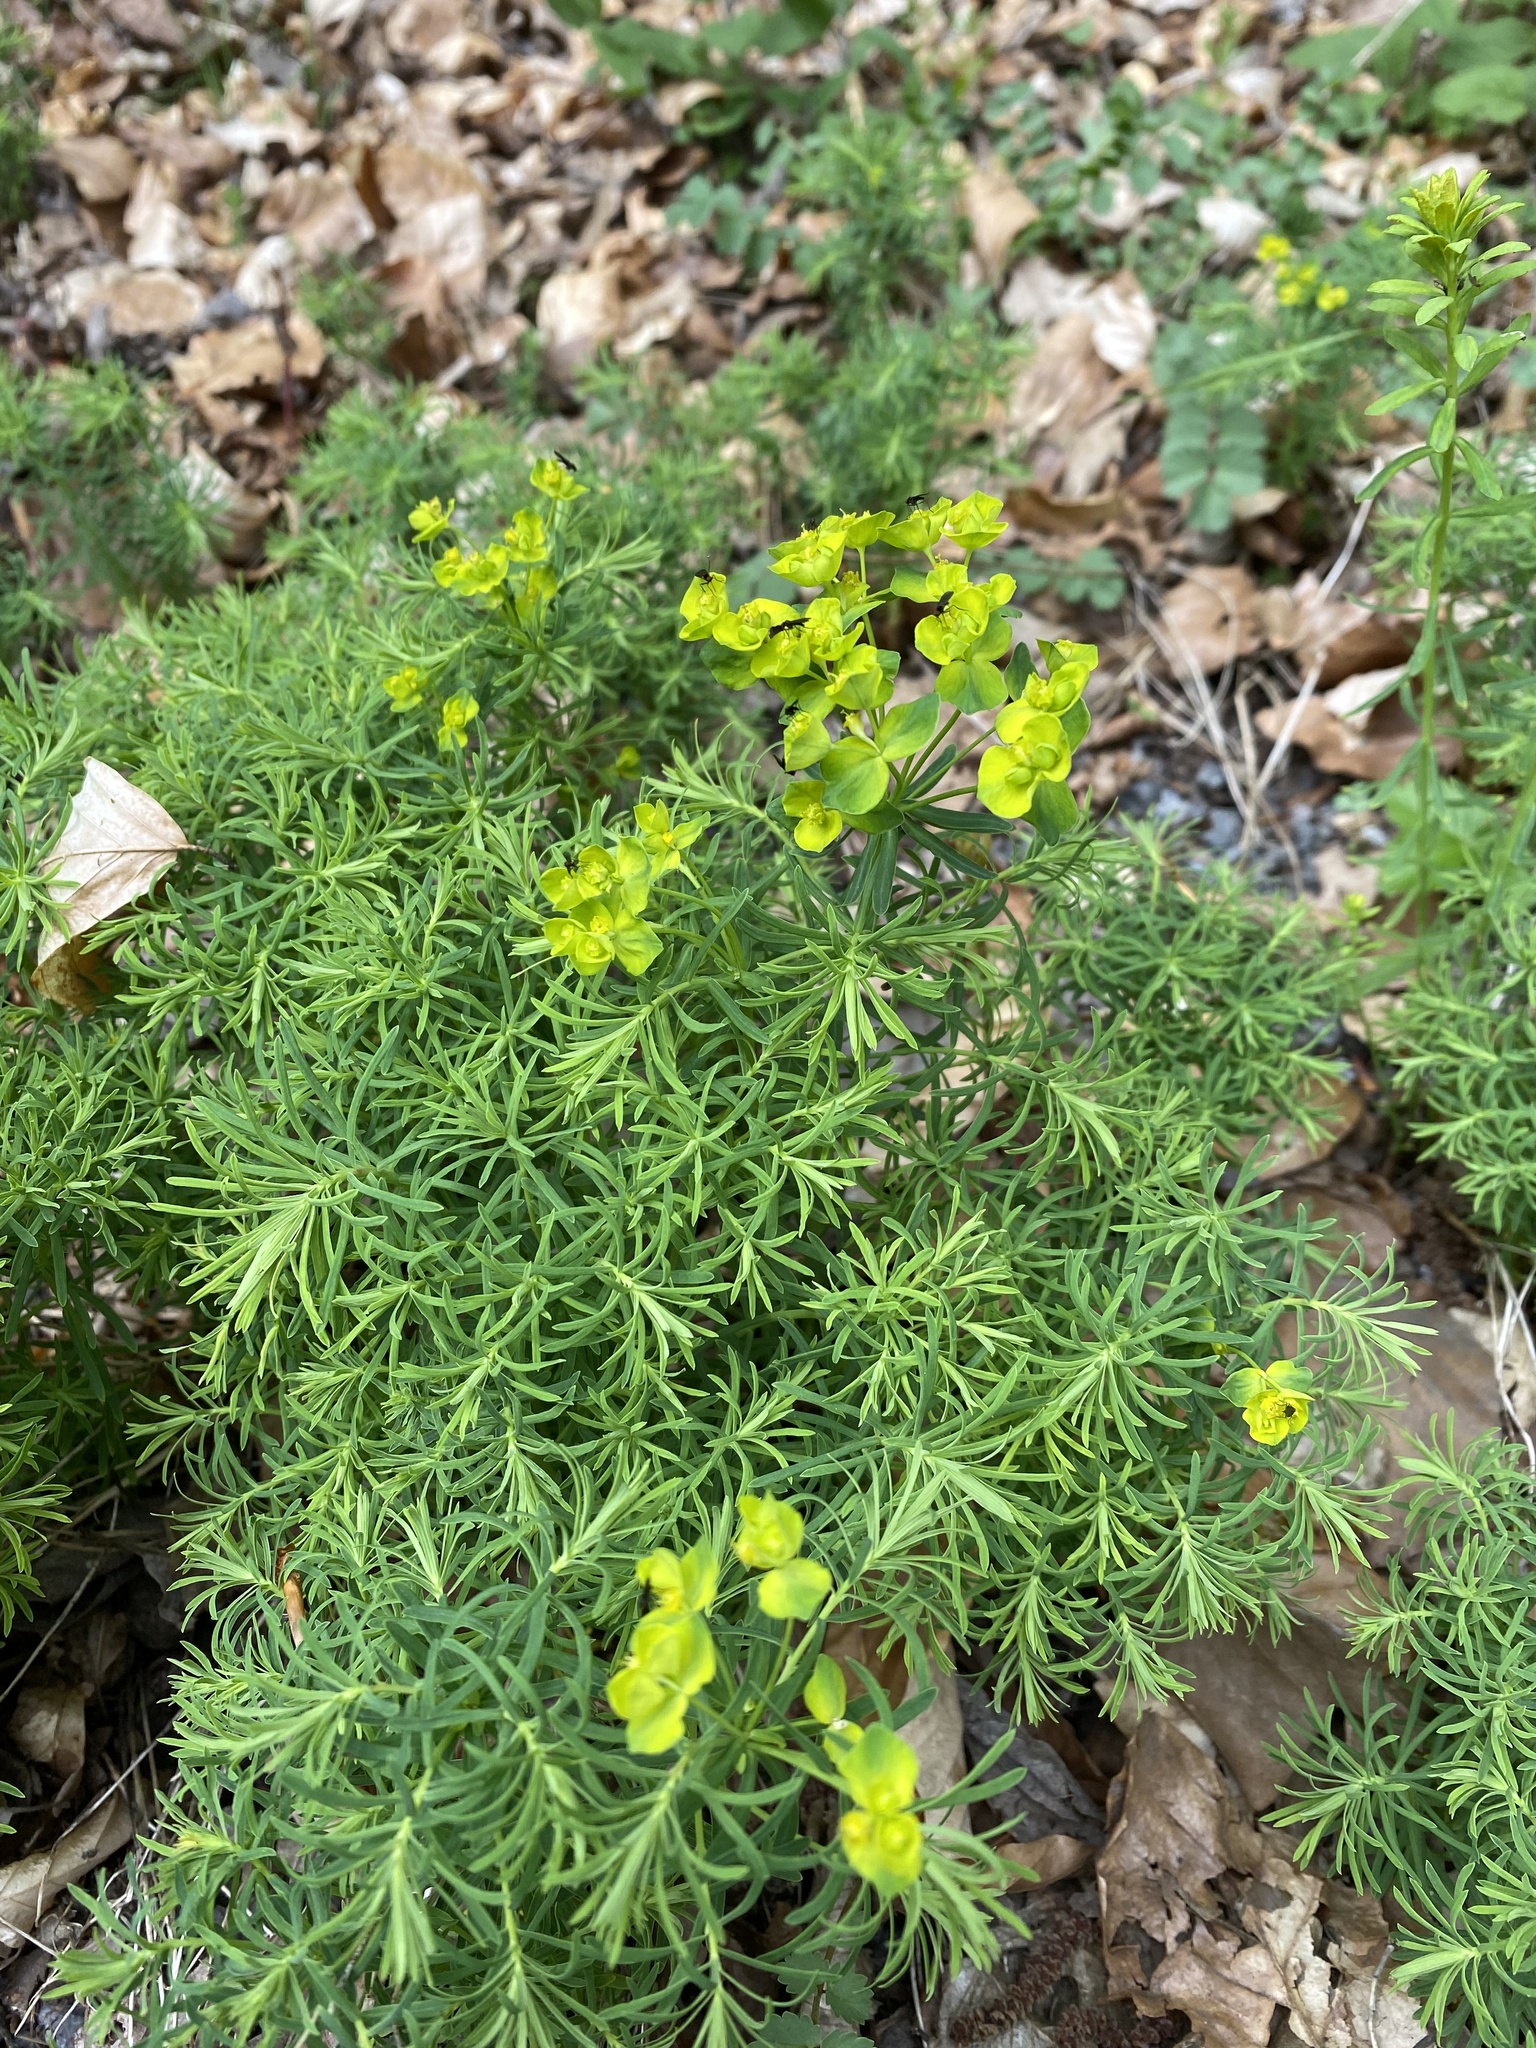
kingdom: Plantae
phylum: Tracheophyta
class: Magnoliopsida
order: Malpighiales
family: Euphorbiaceae
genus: Euphorbia
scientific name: Euphorbia cyparissias
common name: Cypress spurge
